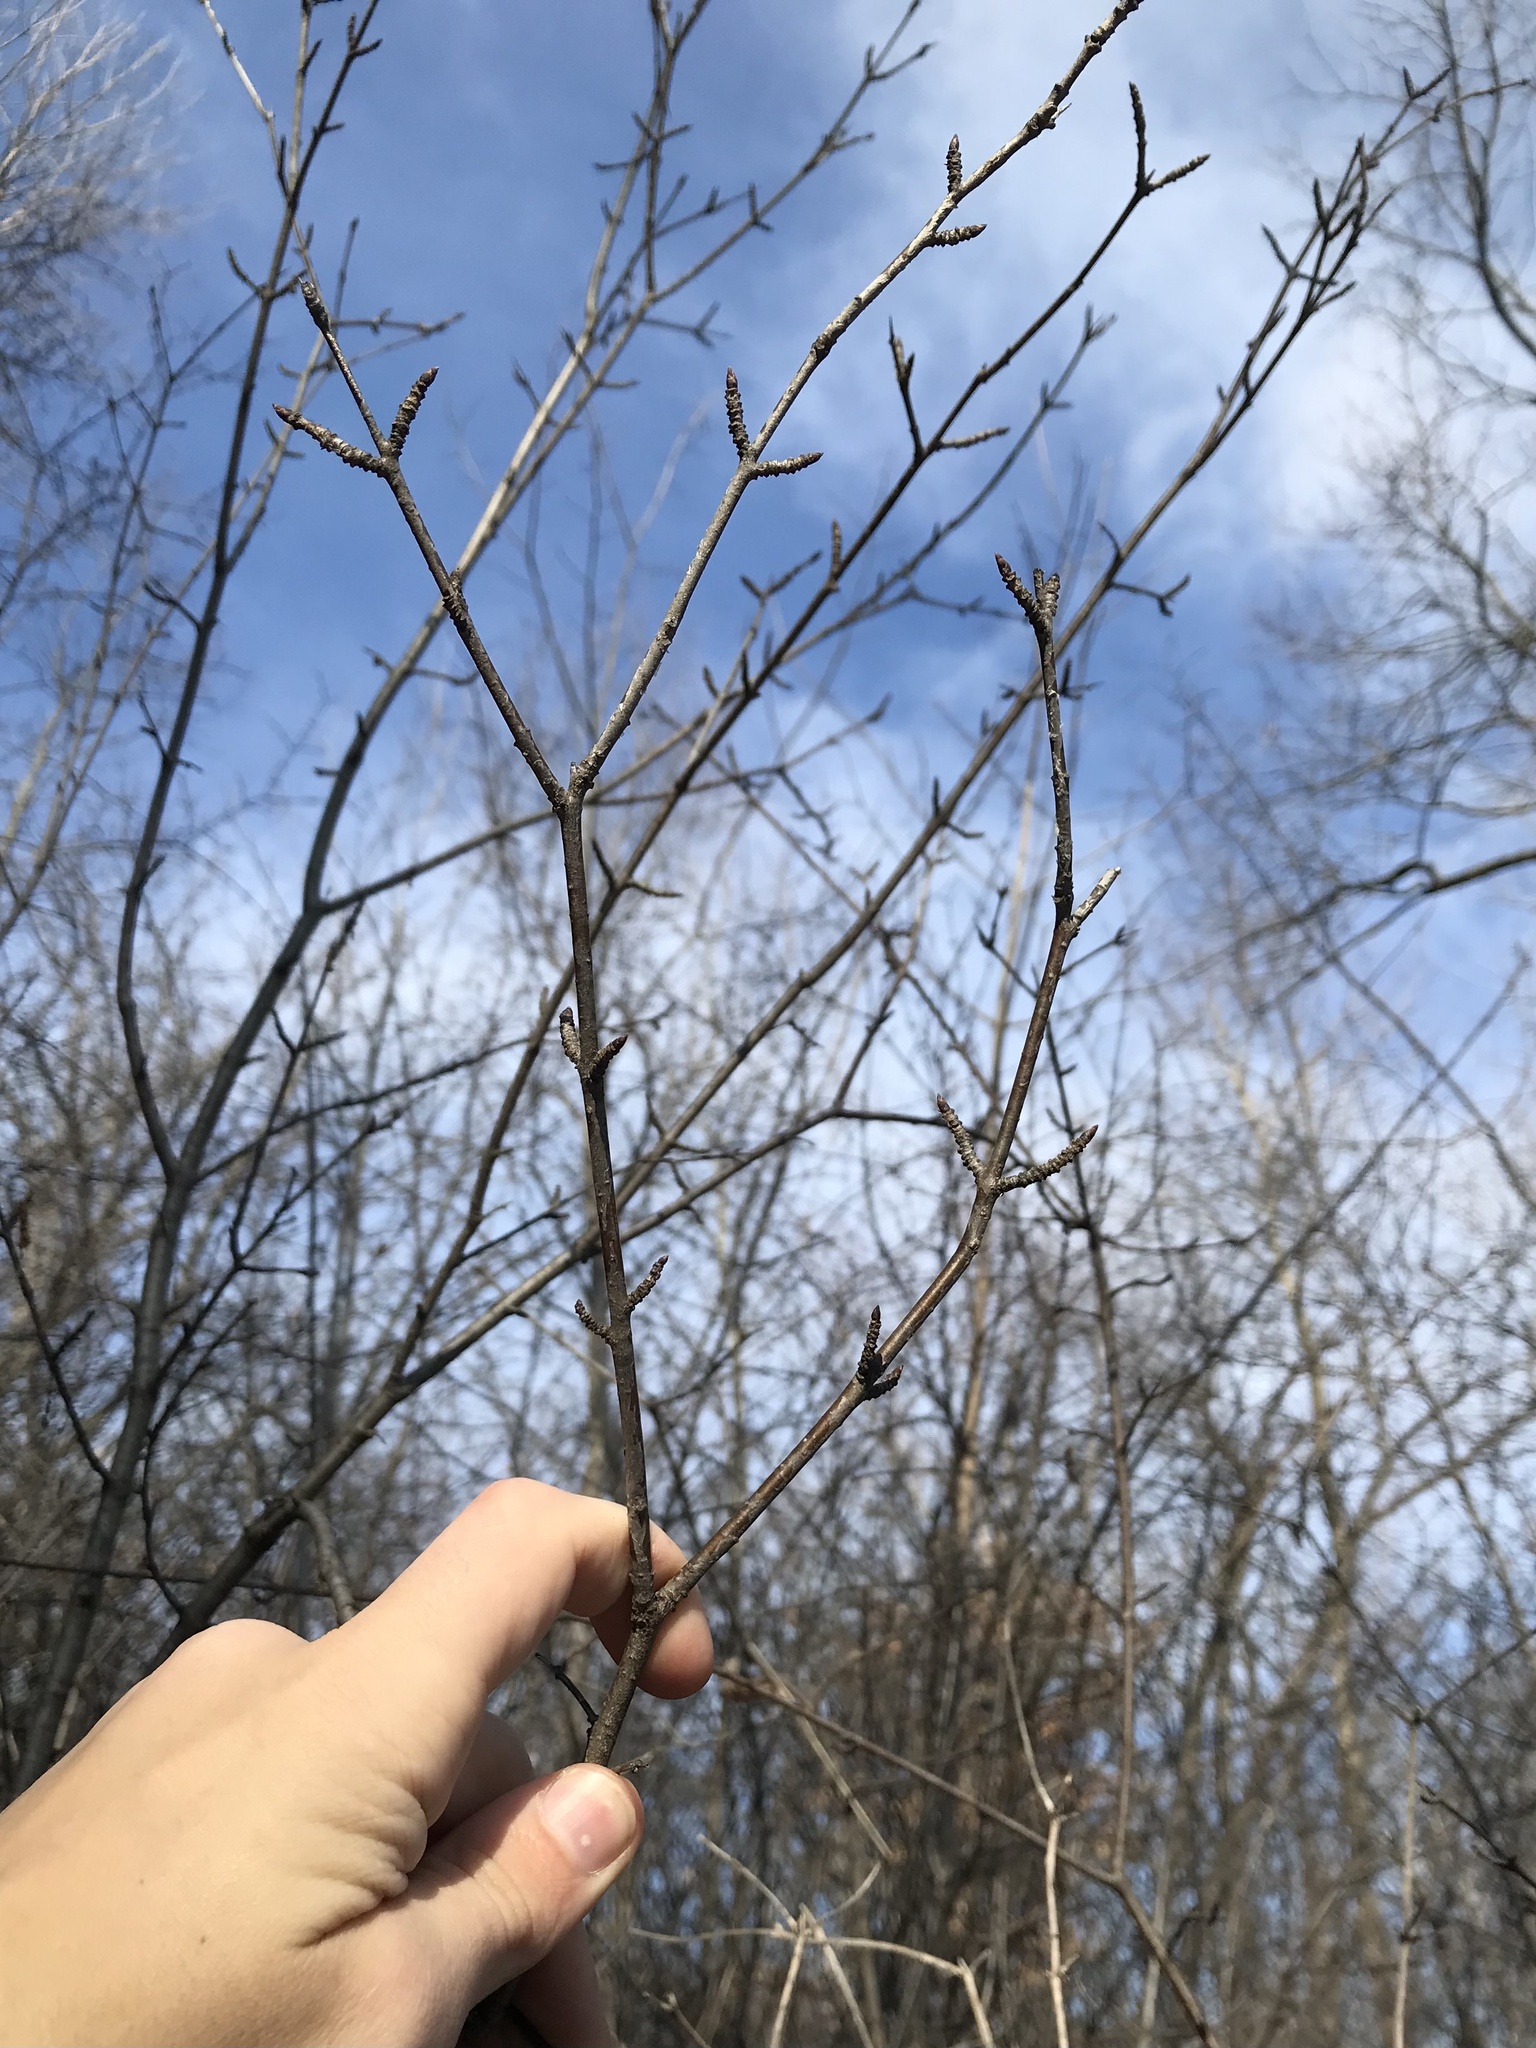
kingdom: Plantae
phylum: Tracheophyta
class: Magnoliopsida
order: Rosales
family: Rhamnaceae
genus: Rhamnus
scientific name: Rhamnus cathartica
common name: Common buckthorn
